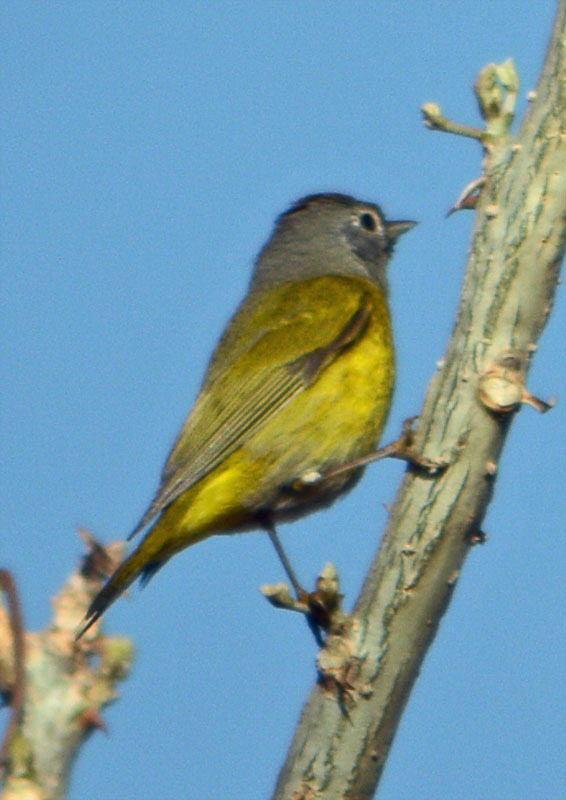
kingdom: Animalia
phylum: Chordata
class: Aves
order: Passeriformes
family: Parulidae
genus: Leiothlypis
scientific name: Leiothlypis ruficapilla
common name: Nashville warbler
